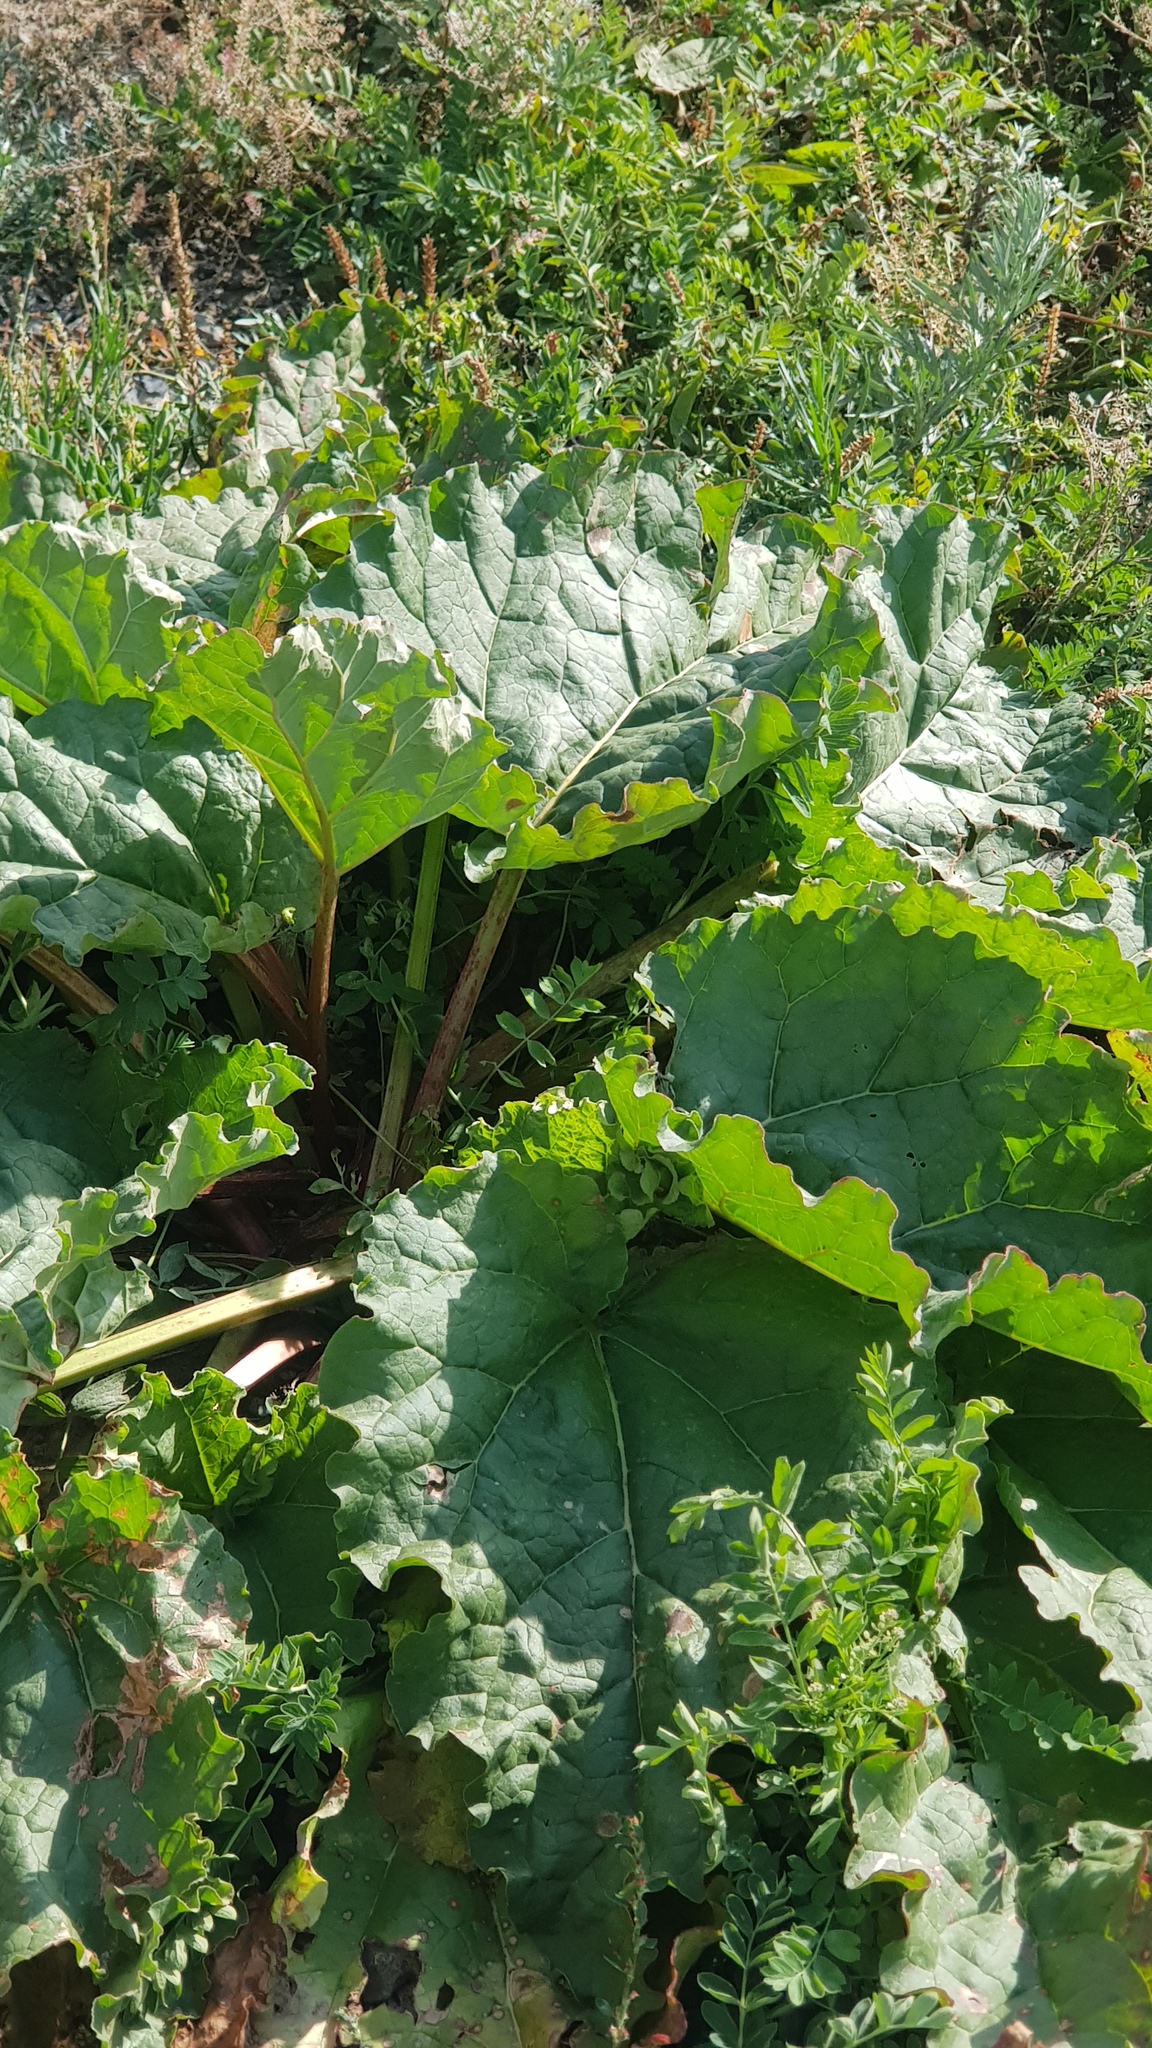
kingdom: Plantae
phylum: Tracheophyta
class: Magnoliopsida
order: Caryophyllales
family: Polygonaceae
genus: Rheum
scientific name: Rheum rhabarbarum
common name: Garden rhubarb
